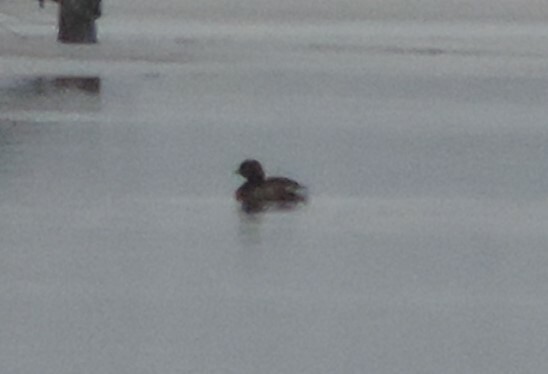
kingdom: Animalia
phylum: Chordata
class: Aves
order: Podicipediformes
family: Podicipedidae
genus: Podilymbus
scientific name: Podilymbus podiceps
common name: Pied-billed grebe
